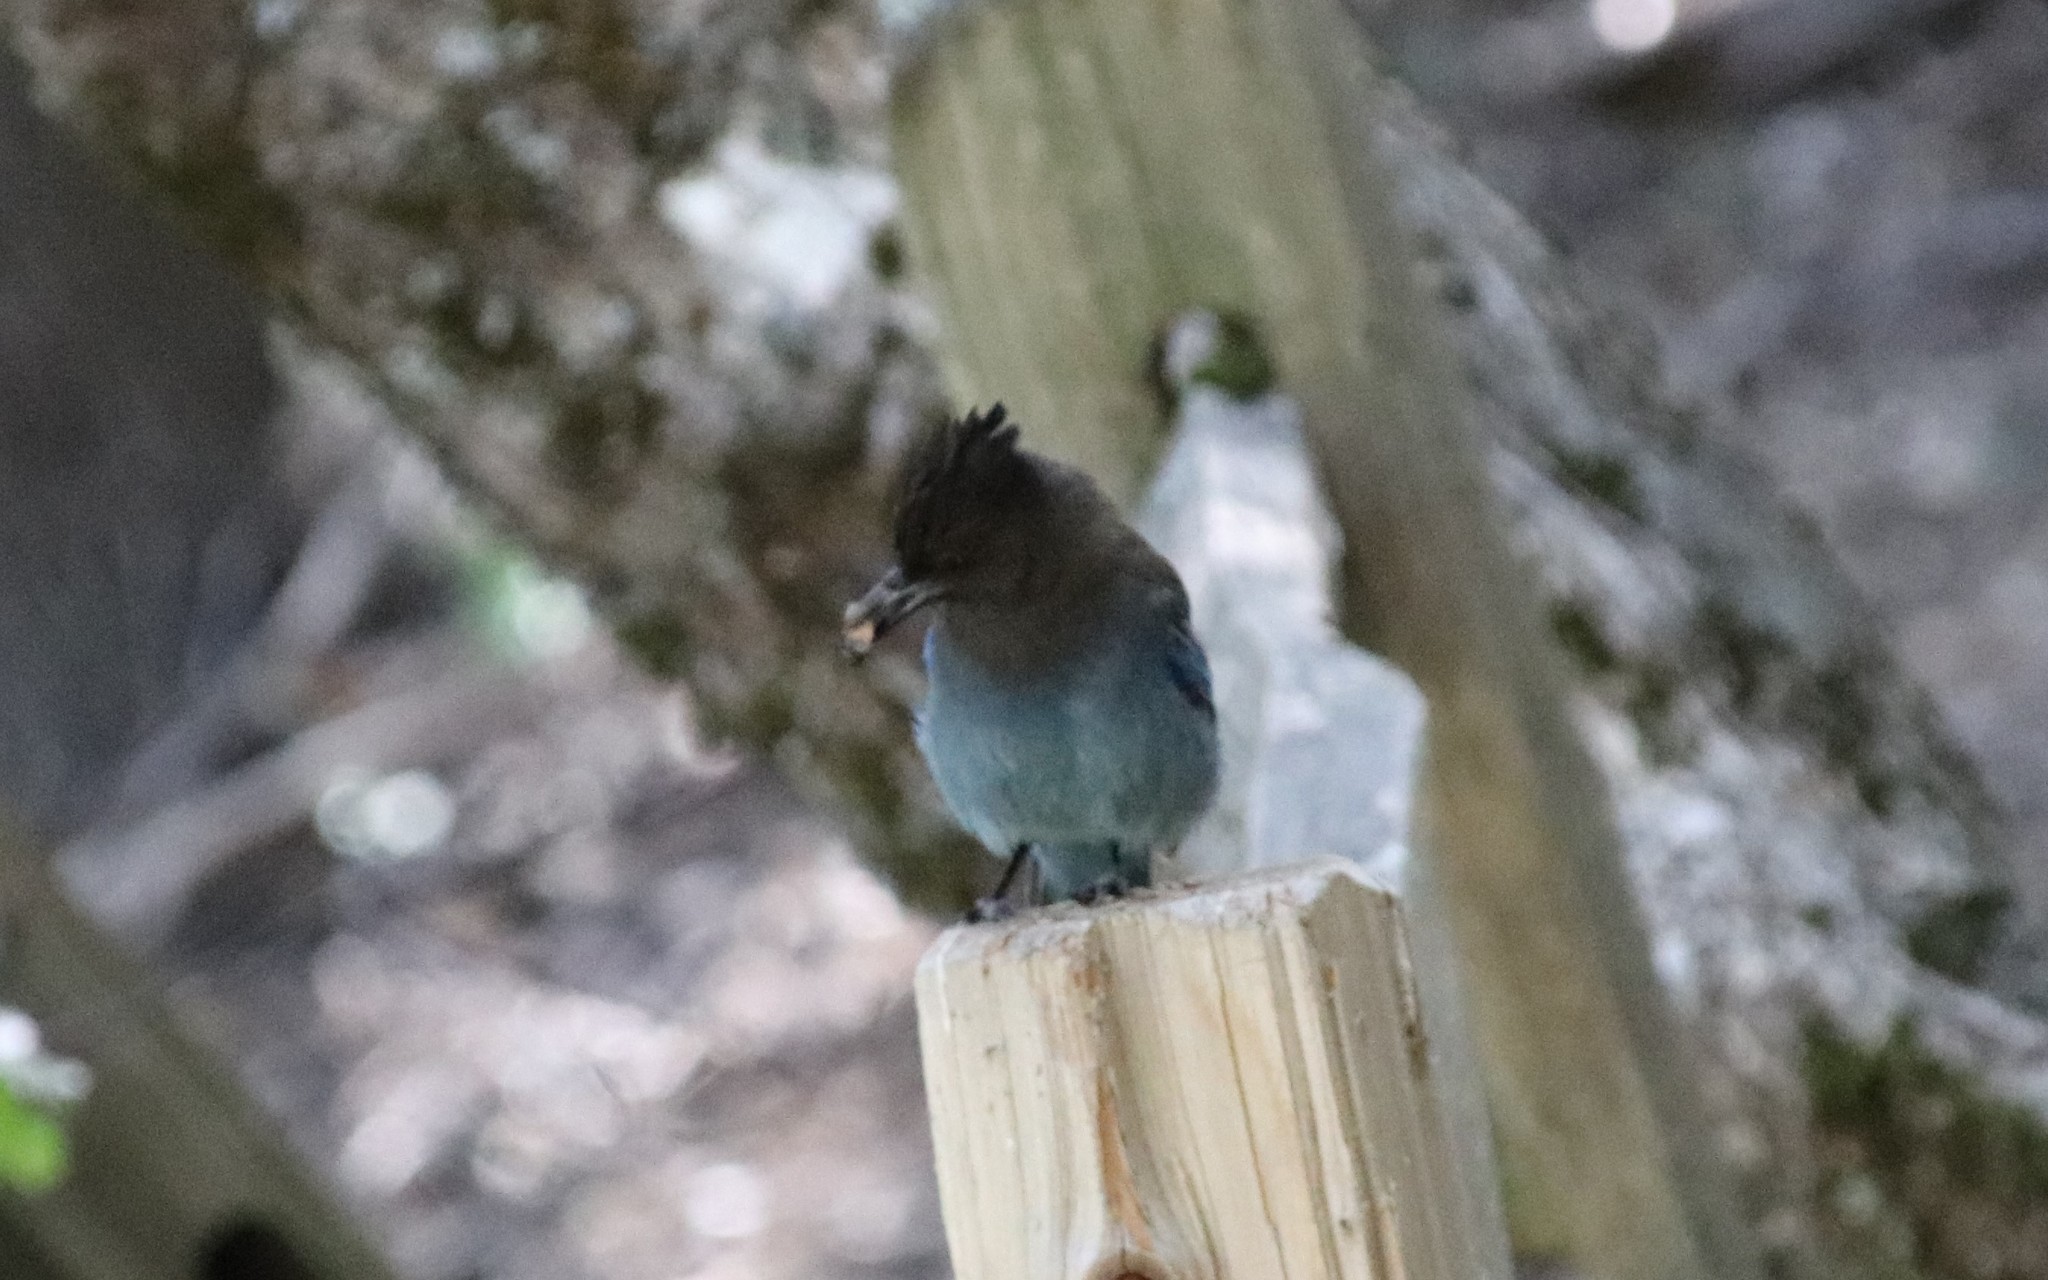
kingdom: Animalia
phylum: Chordata
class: Aves
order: Passeriformes
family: Corvidae
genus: Cyanocitta
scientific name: Cyanocitta stelleri
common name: Steller's jay
